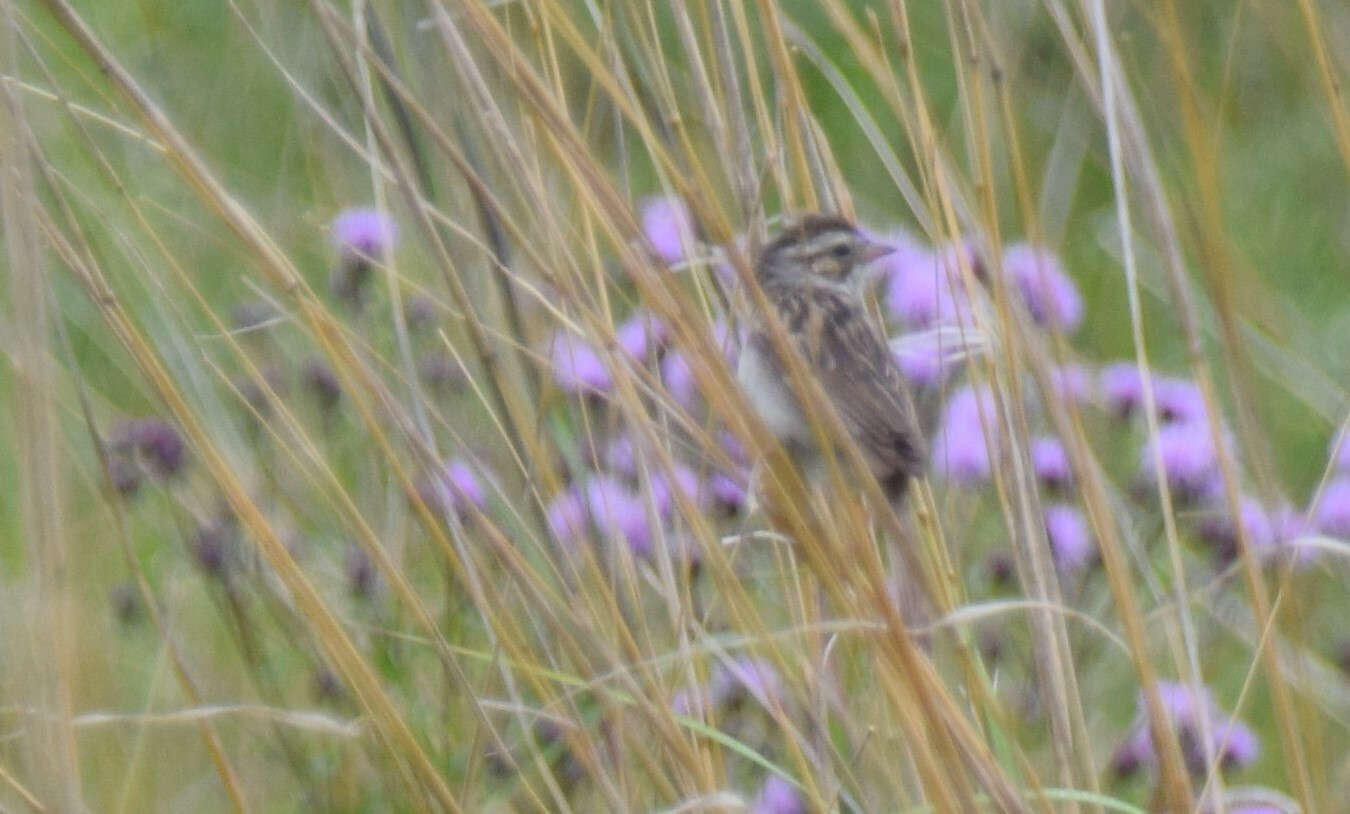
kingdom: Animalia
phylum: Chordata
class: Aves
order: Passeriformes
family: Passerellidae
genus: Spizella
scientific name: Spizella pallida
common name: Clay-colored sparrow
